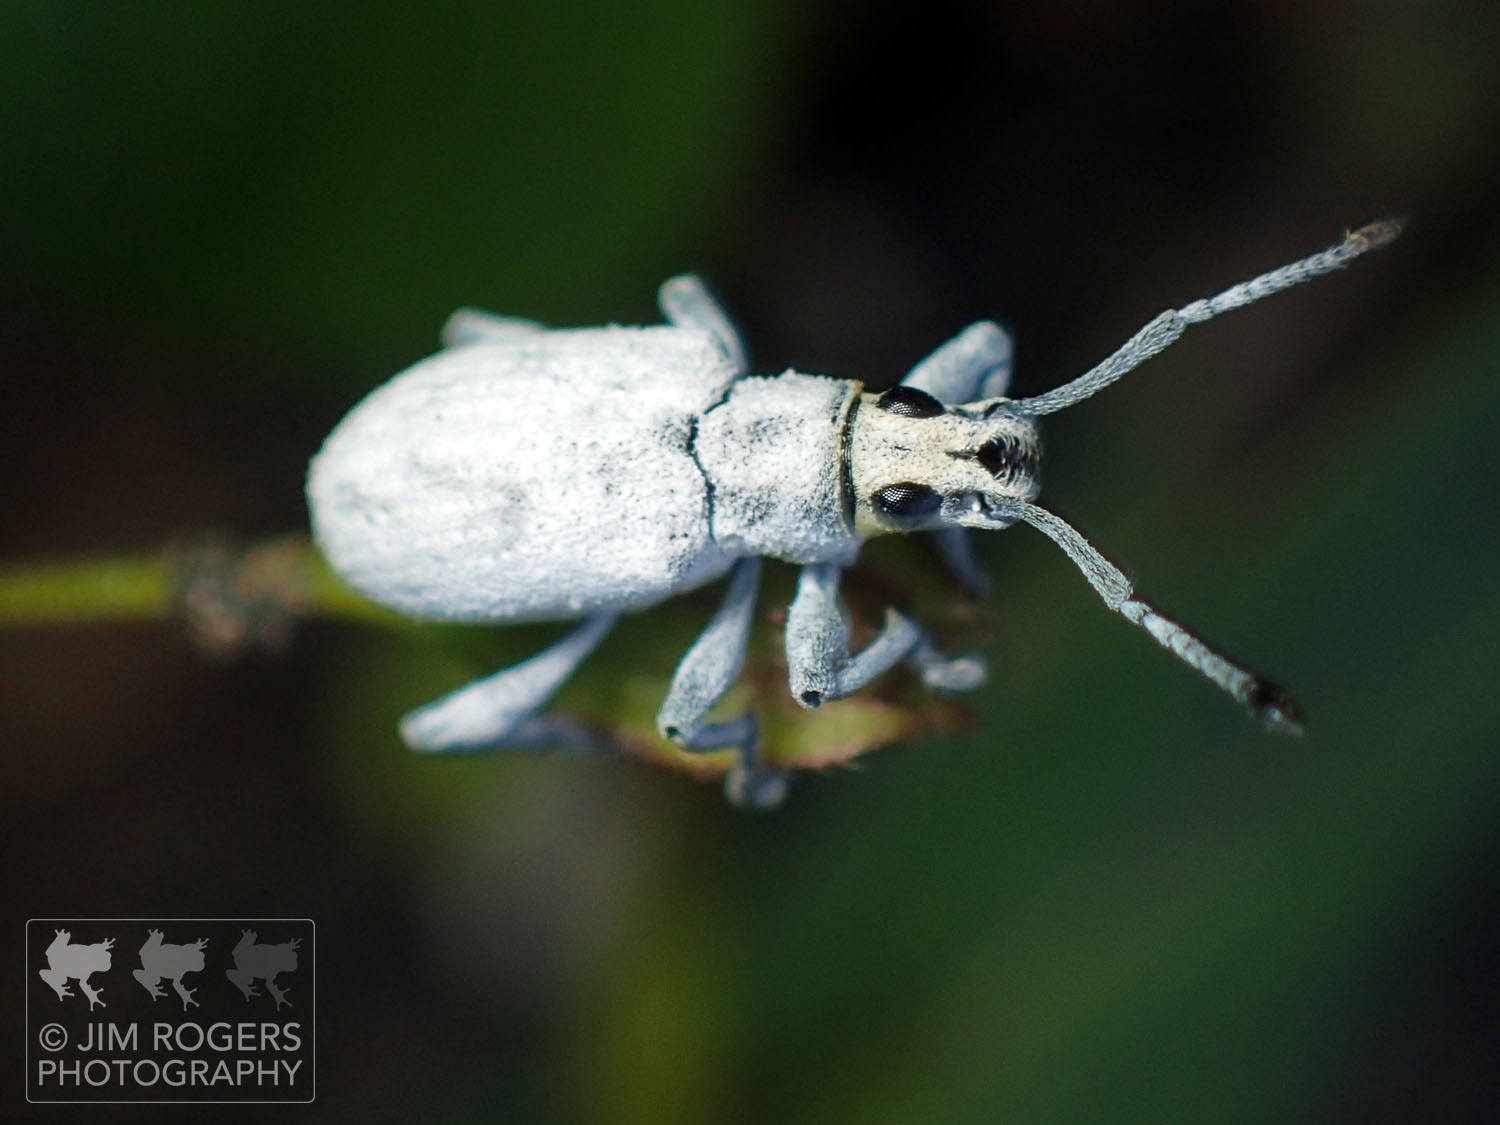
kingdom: Animalia
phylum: Arthropoda
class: Insecta
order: Coleoptera
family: Curculionidae
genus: Myllocerus
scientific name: Myllocerus undecimpustulatus
